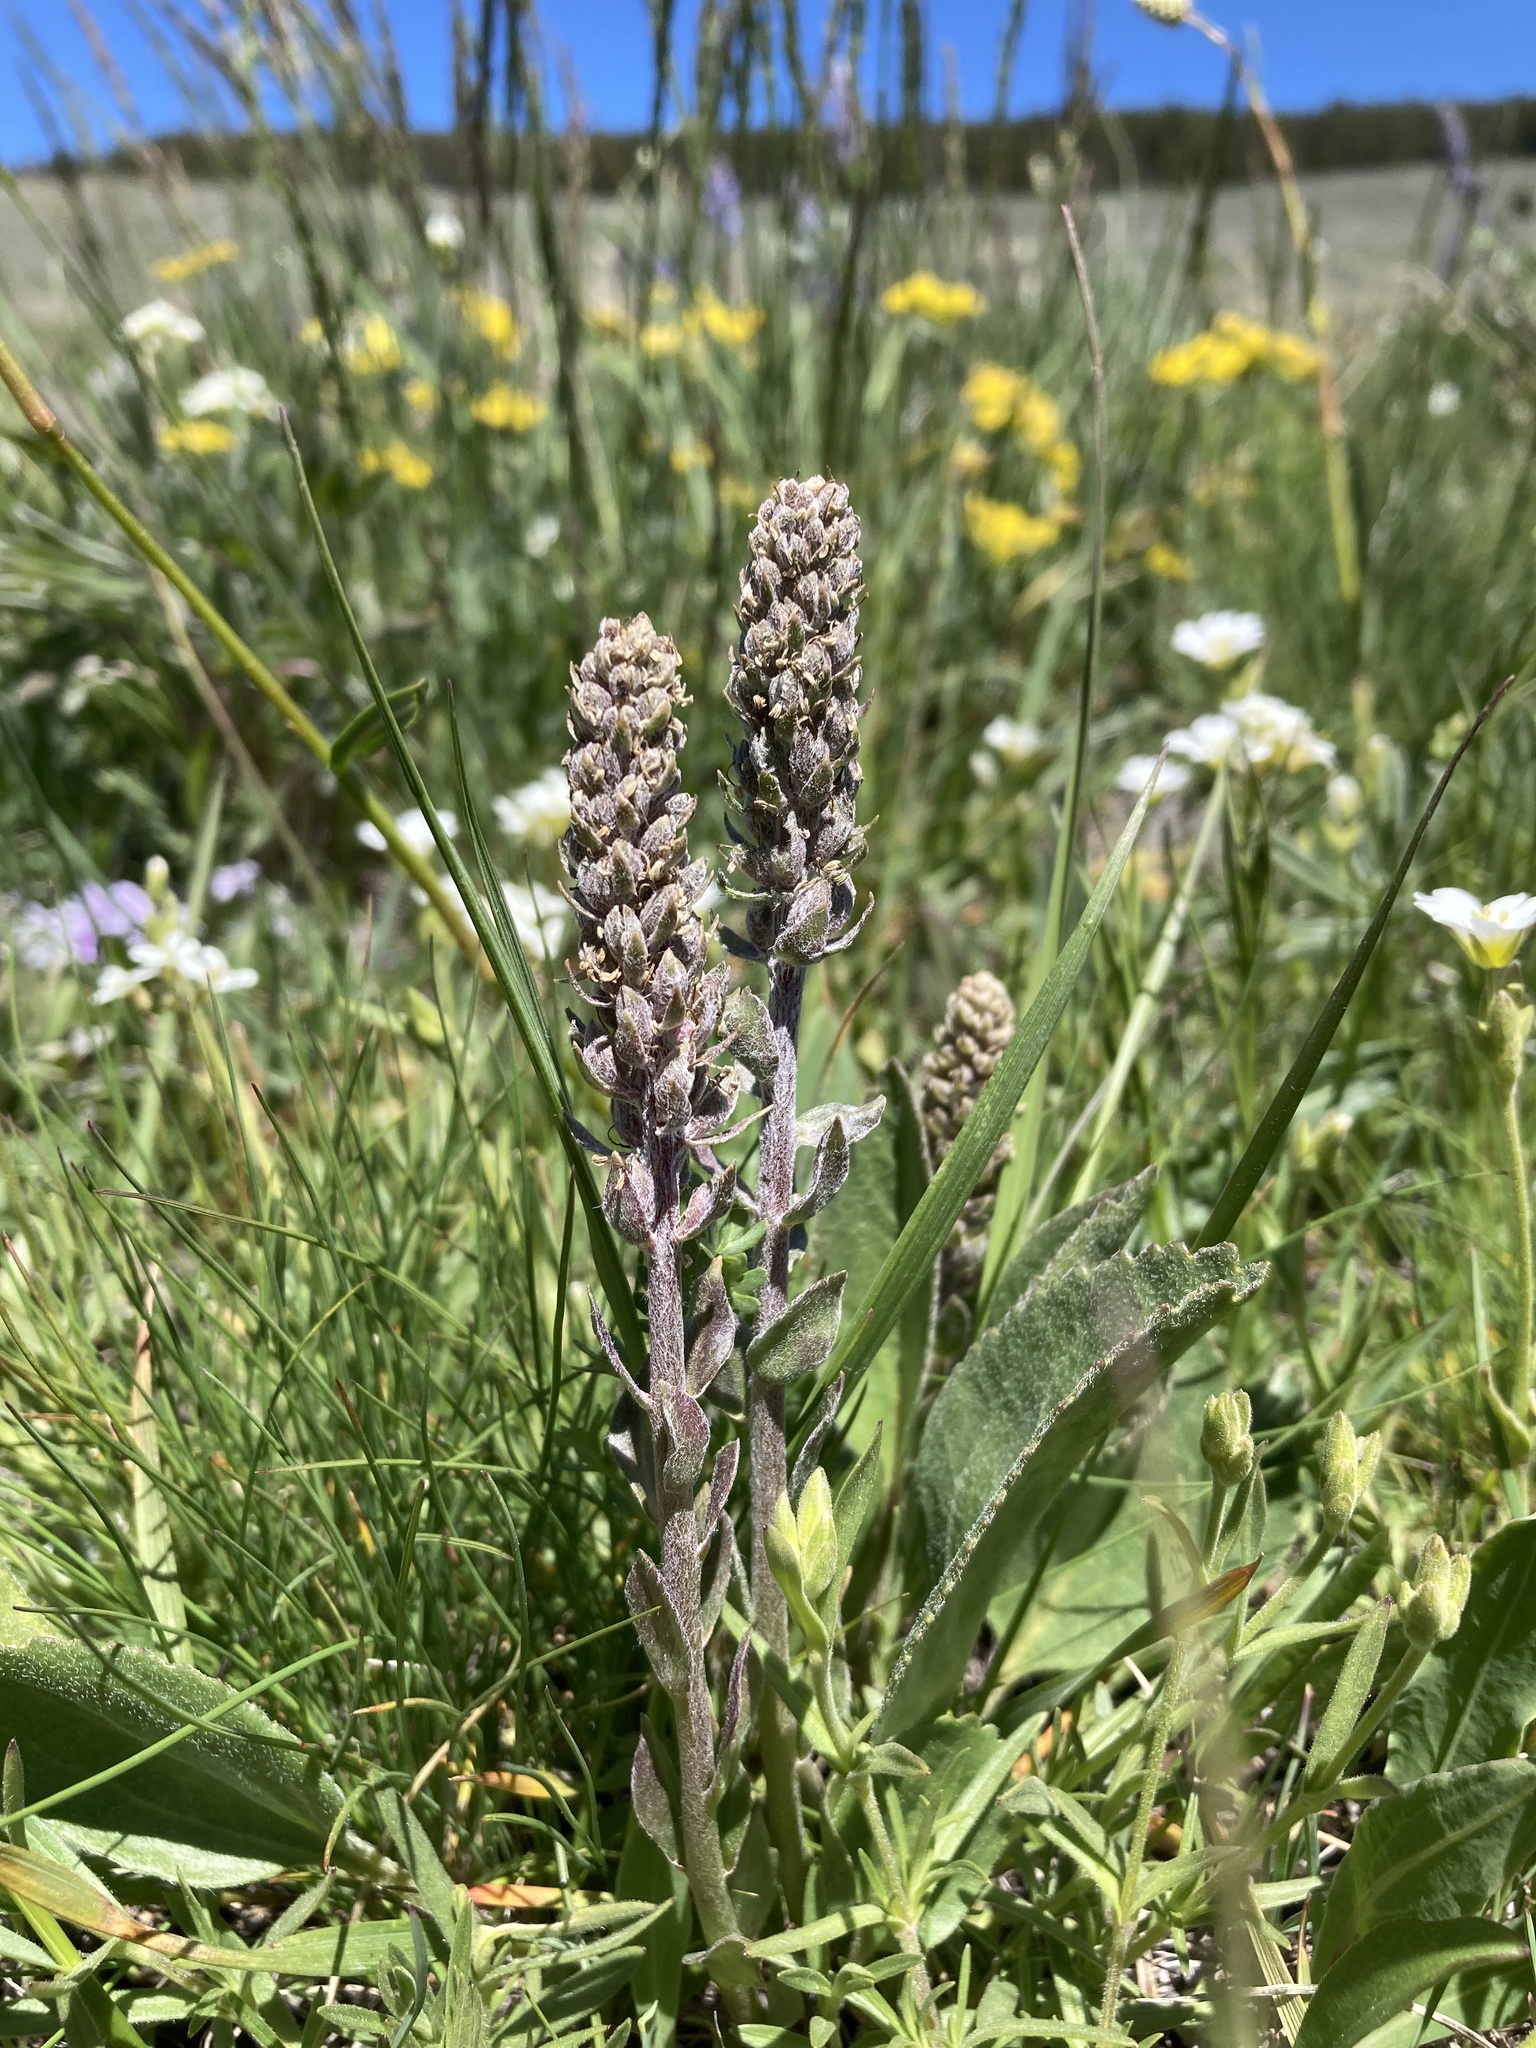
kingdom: Plantae
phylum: Tracheophyta
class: Magnoliopsida
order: Lamiales
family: Plantaginaceae
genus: Synthyris
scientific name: Synthyris wyomingensis
